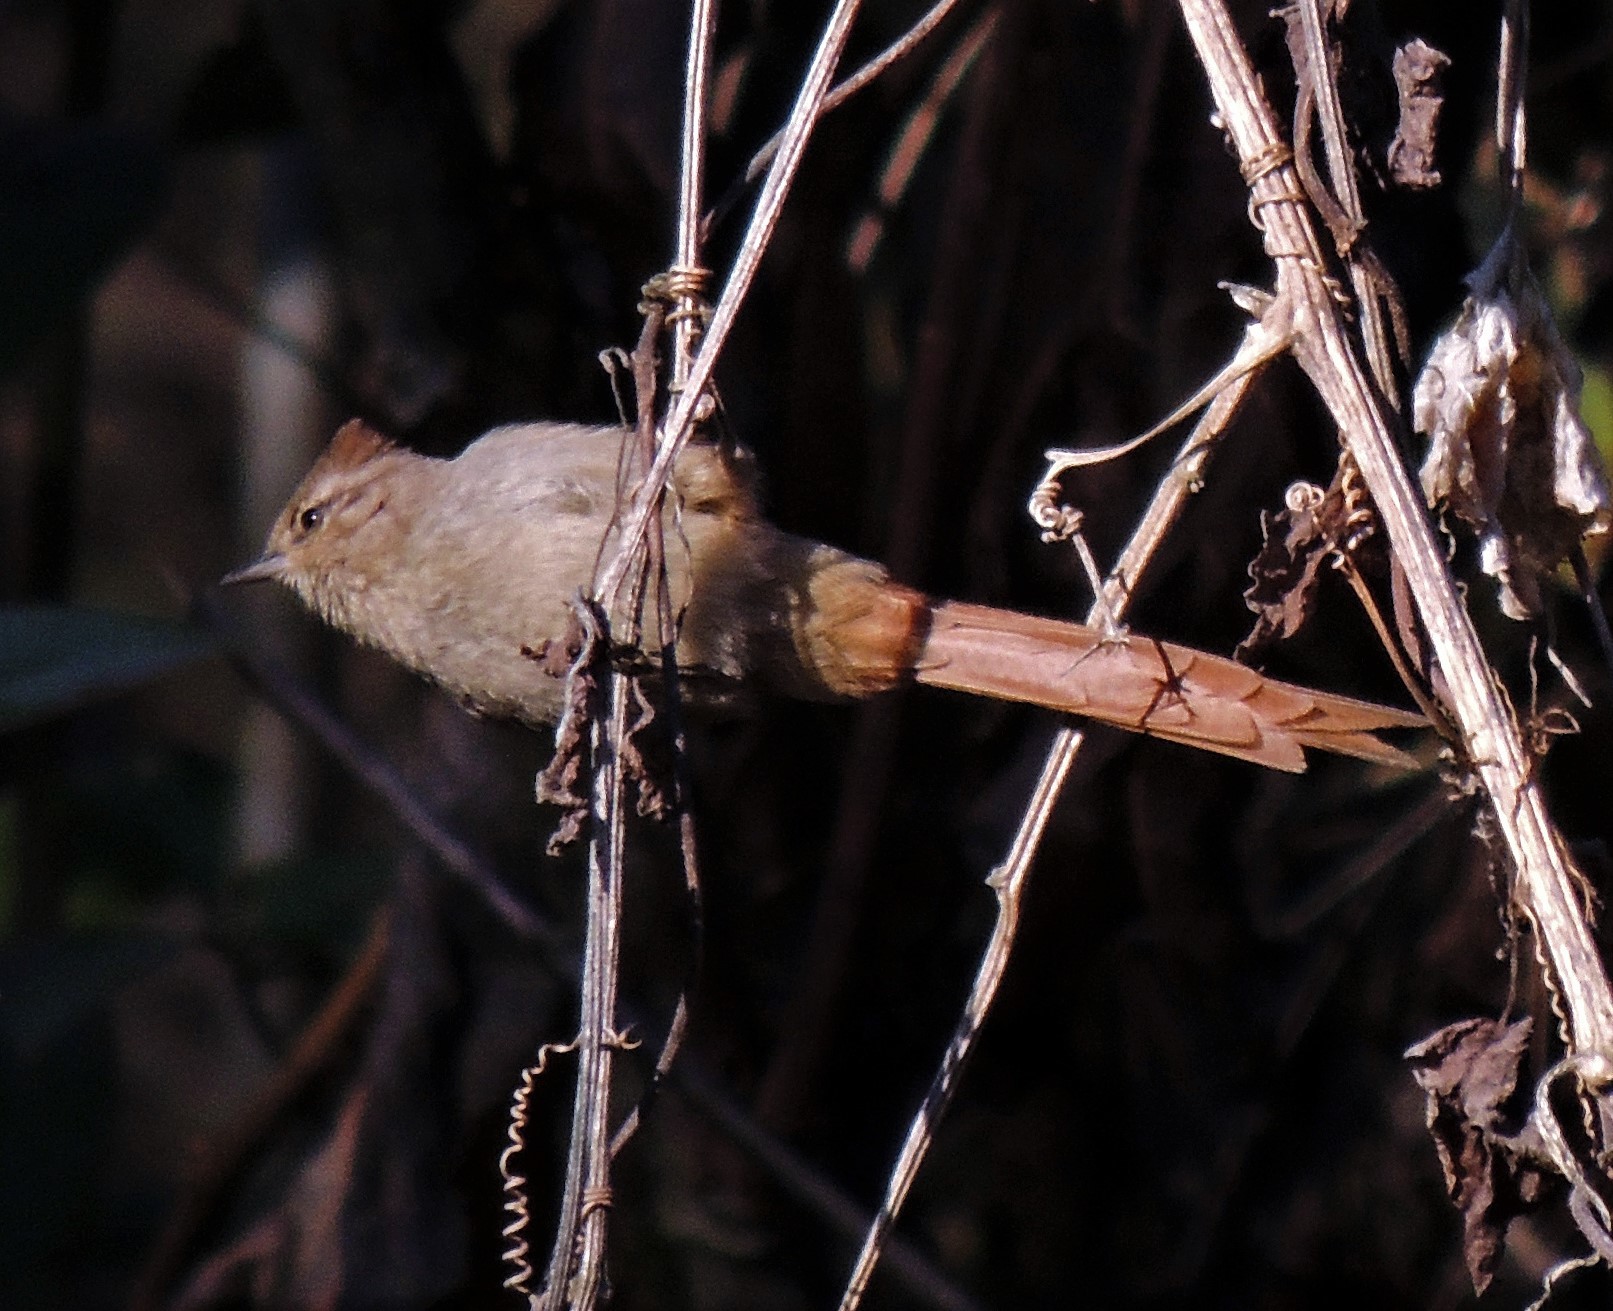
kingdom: Animalia
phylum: Chordata
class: Aves
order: Passeriformes
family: Furnariidae
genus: Leptasthenura
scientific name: Leptasthenura fuliginiceps
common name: Brown-capped tit-spinetail
